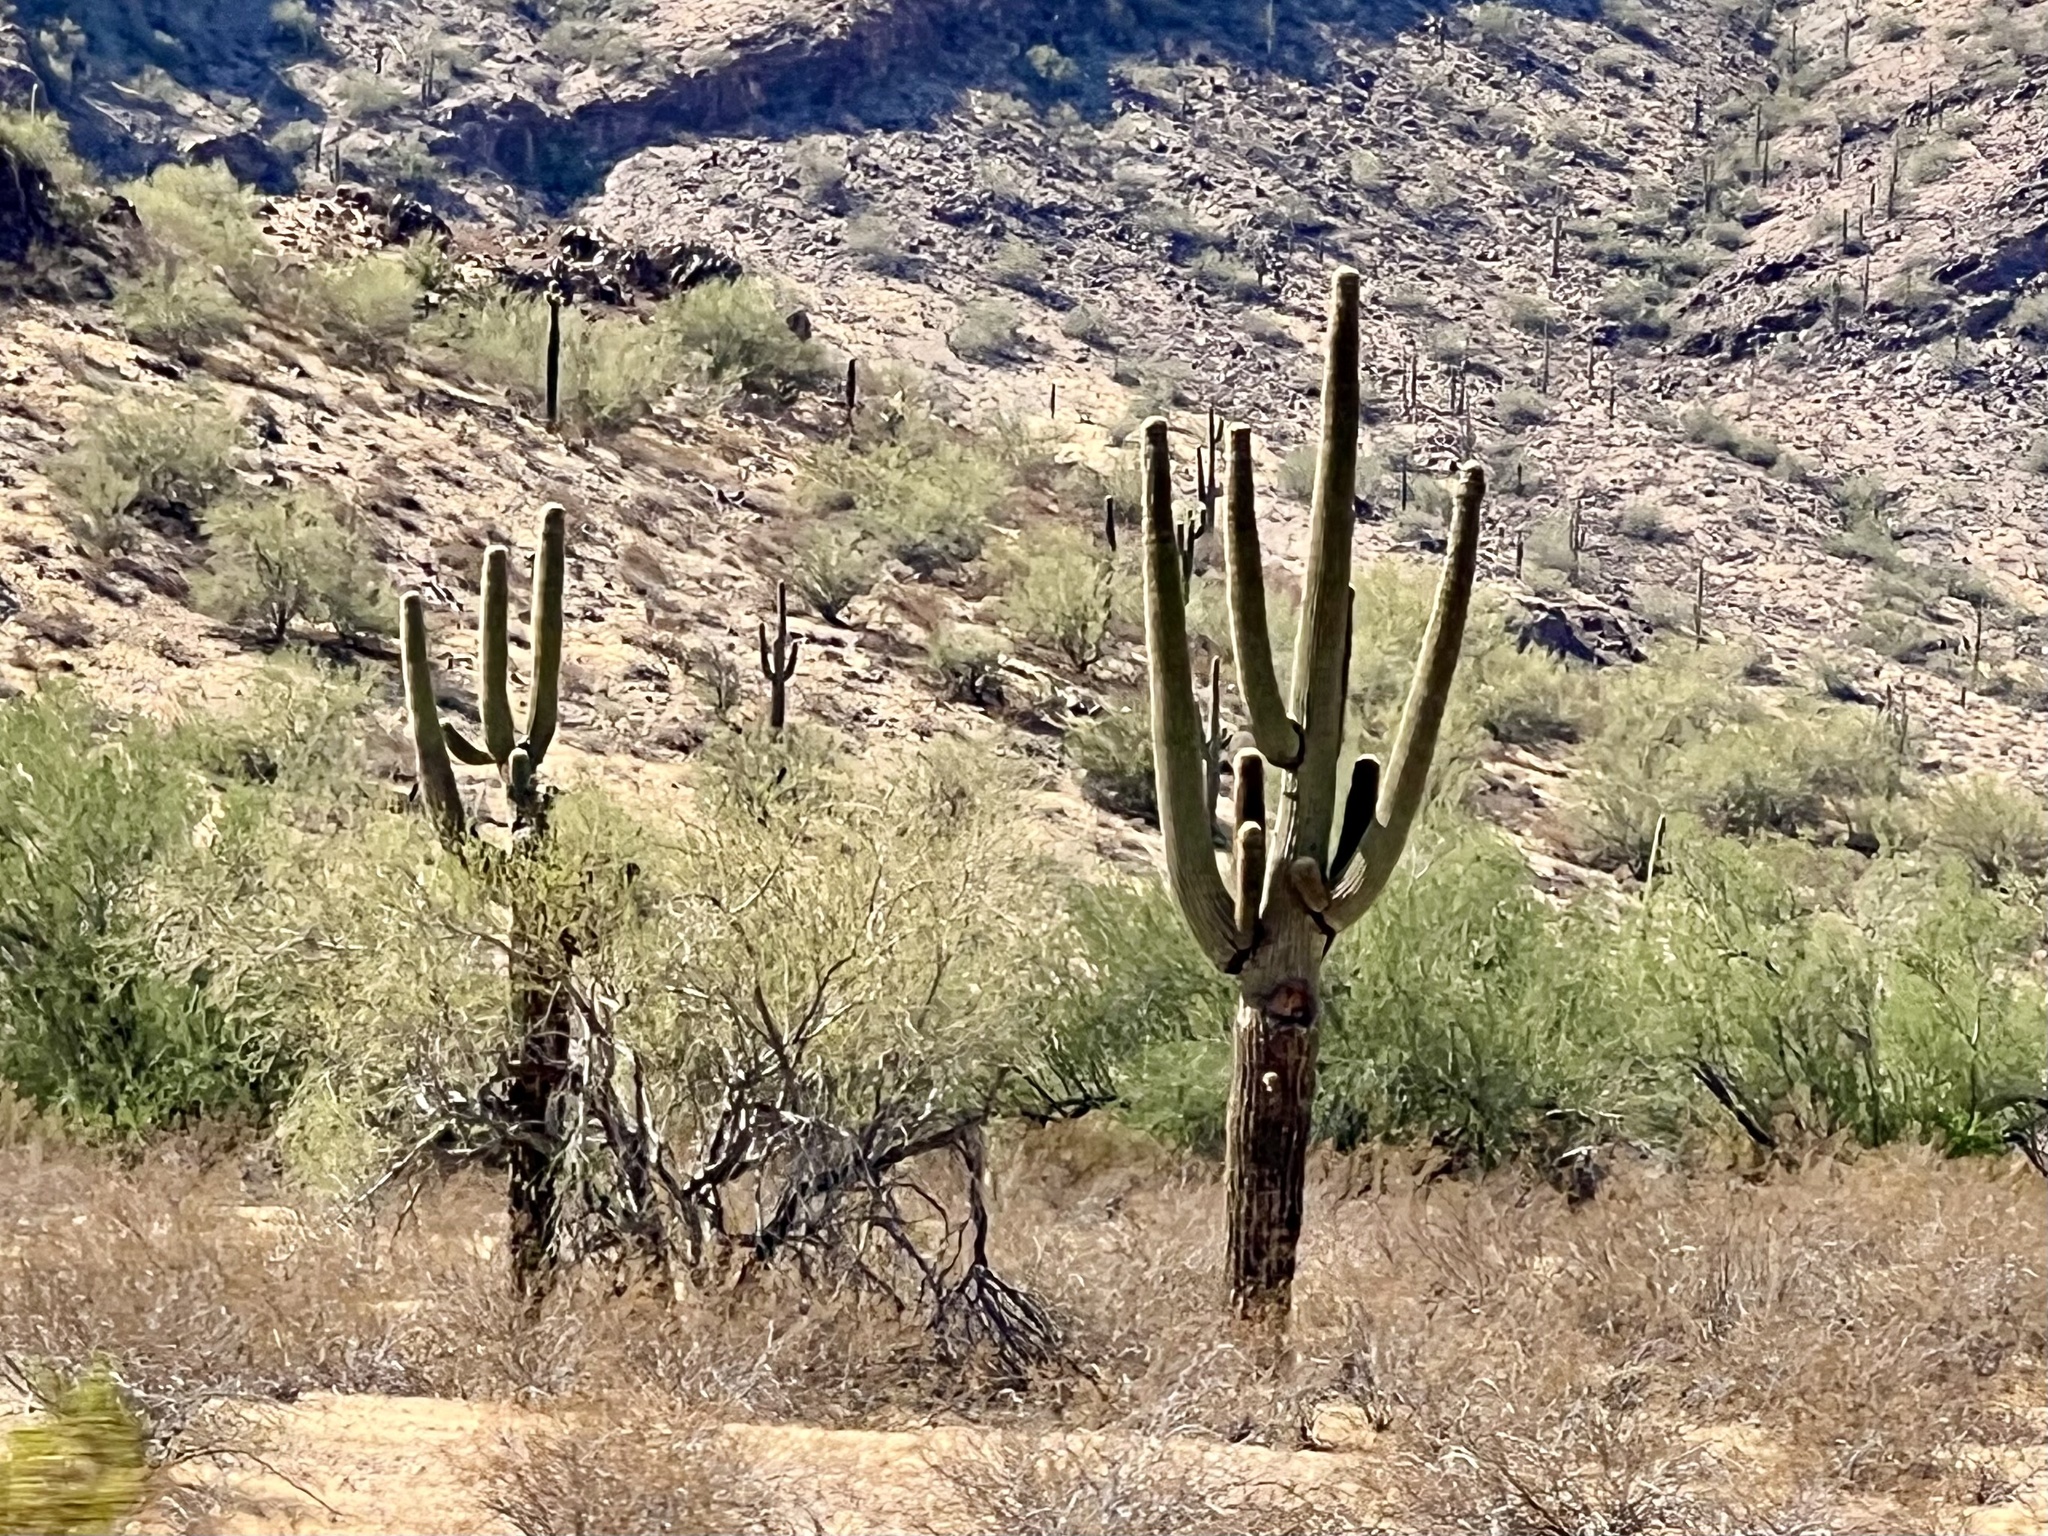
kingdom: Plantae
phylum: Tracheophyta
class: Magnoliopsida
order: Caryophyllales
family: Cactaceae
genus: Carnegiea
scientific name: Carnegiea gigantea
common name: Saguaro
